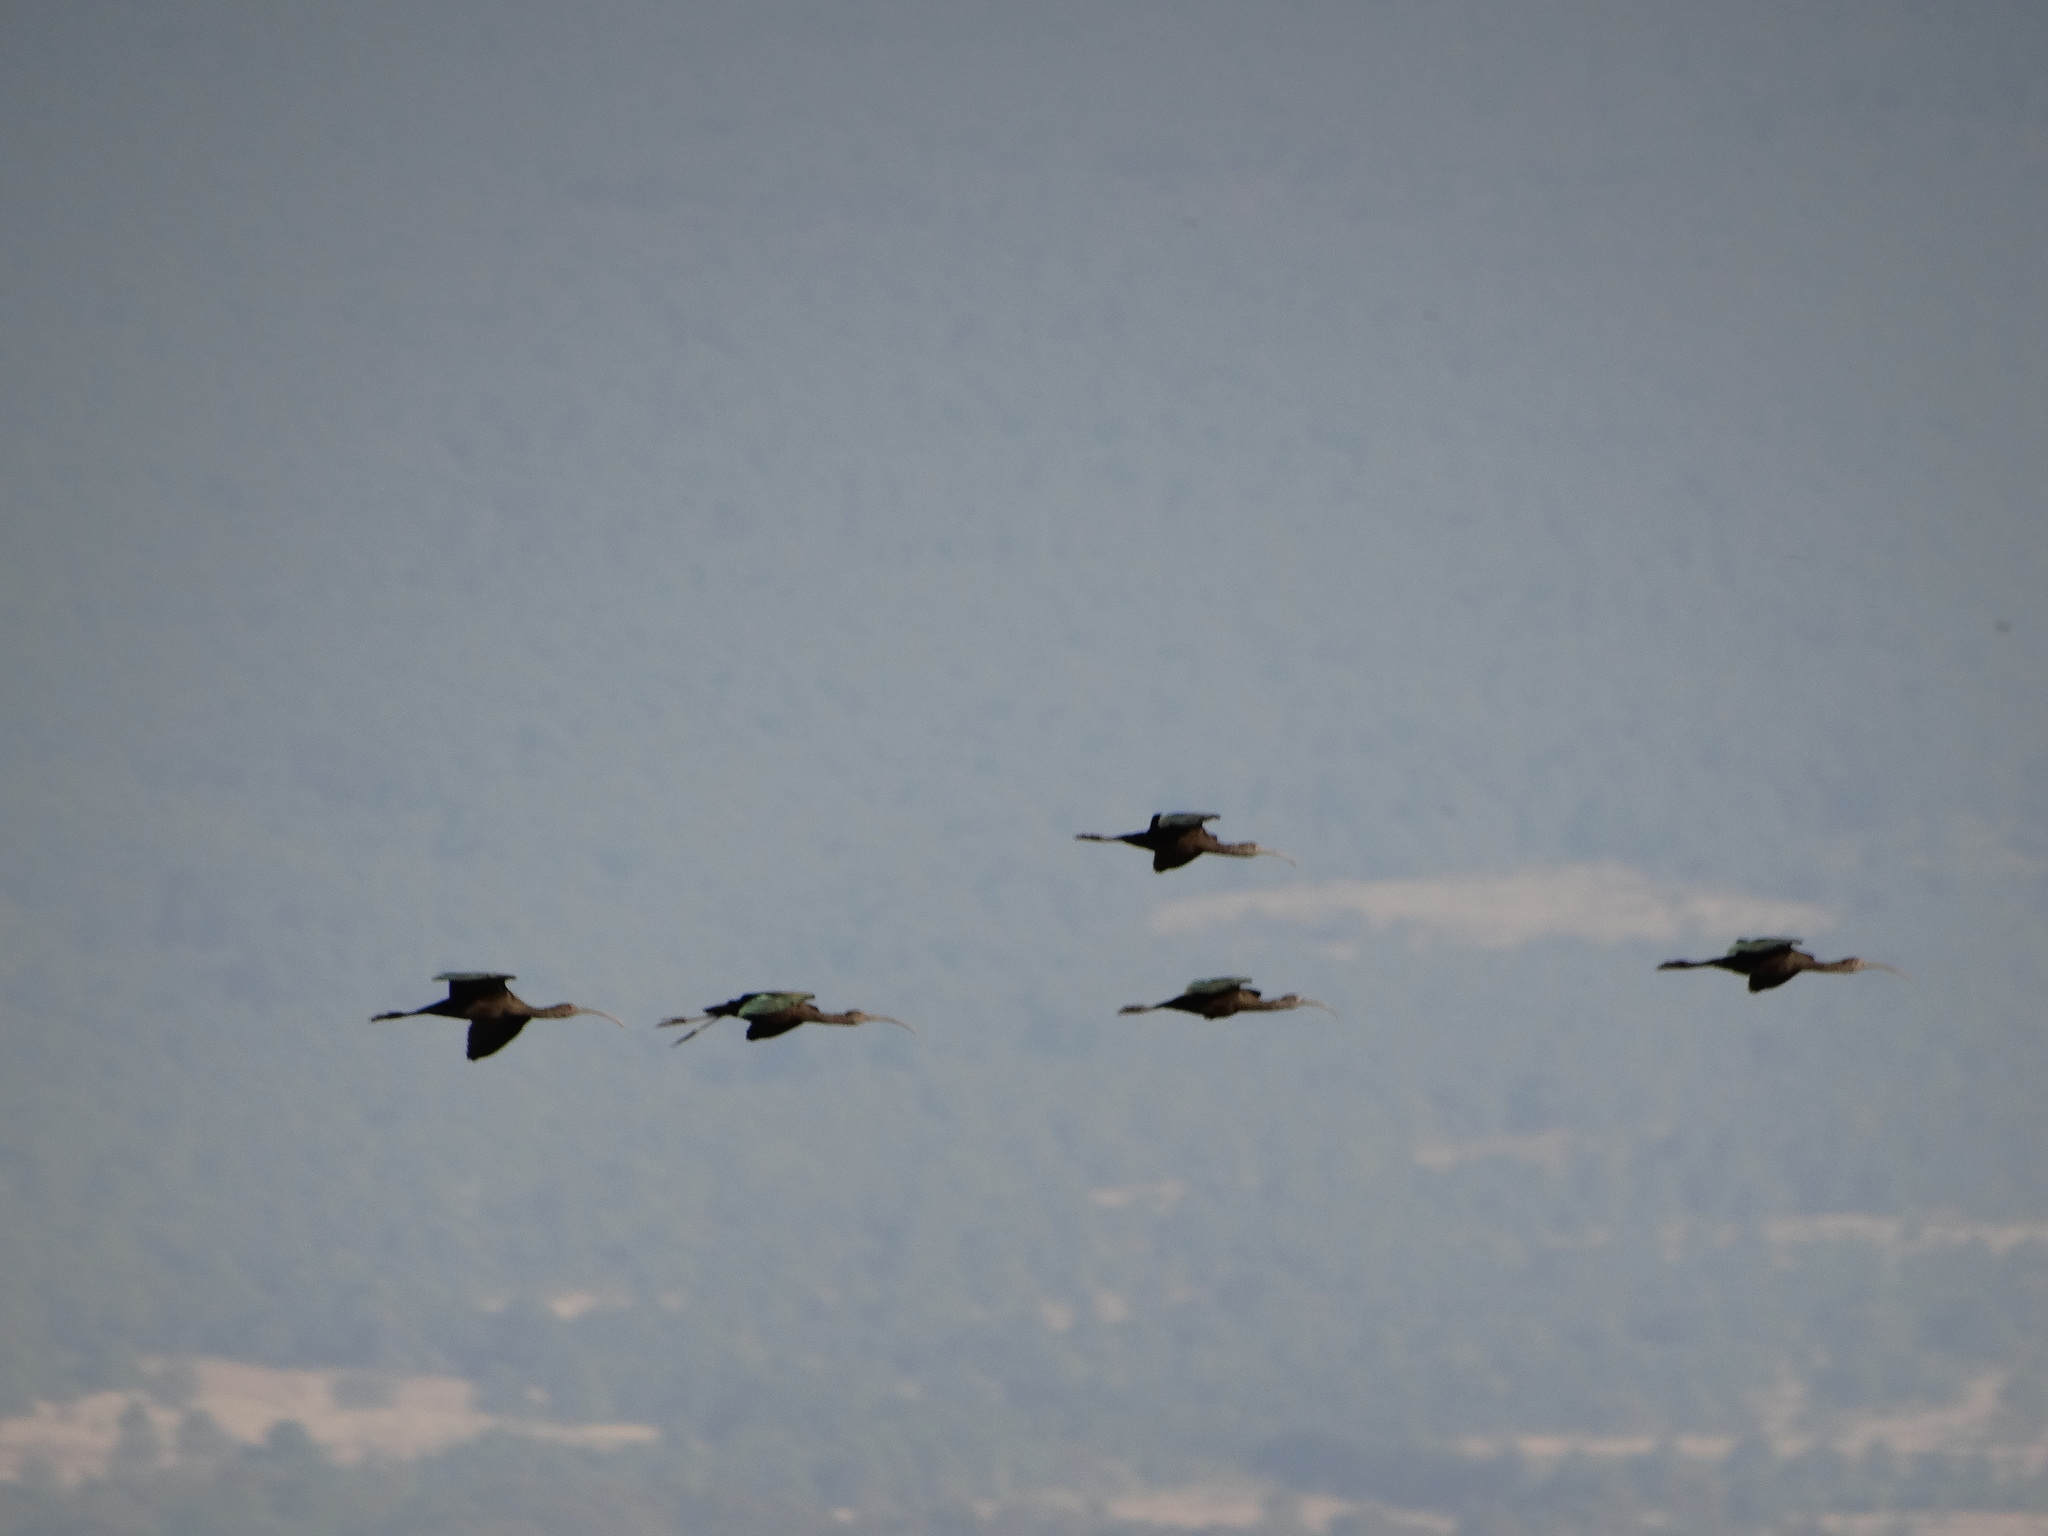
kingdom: Animalia
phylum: Chordata
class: Aves
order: Pelecaniformes
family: Threskiornithidae
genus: Plegadis
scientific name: Plegadis chihi
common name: White-faced ibis
